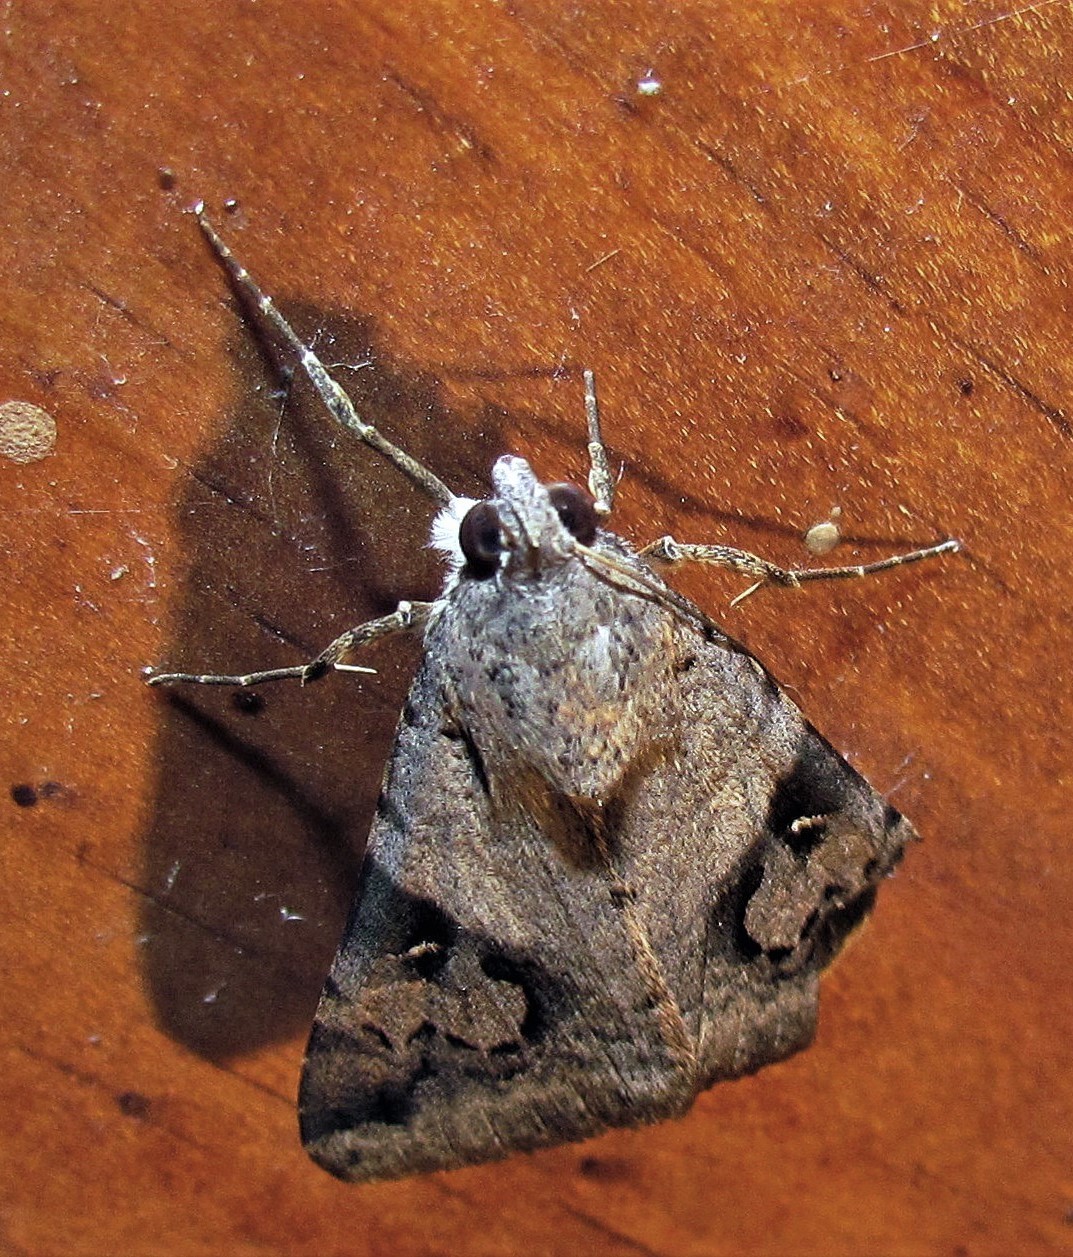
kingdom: Animalia
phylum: Arthropoda
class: Insecta
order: Lepidoptera
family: Erebidae
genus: Melipotis
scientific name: Melipotis ochrodes
